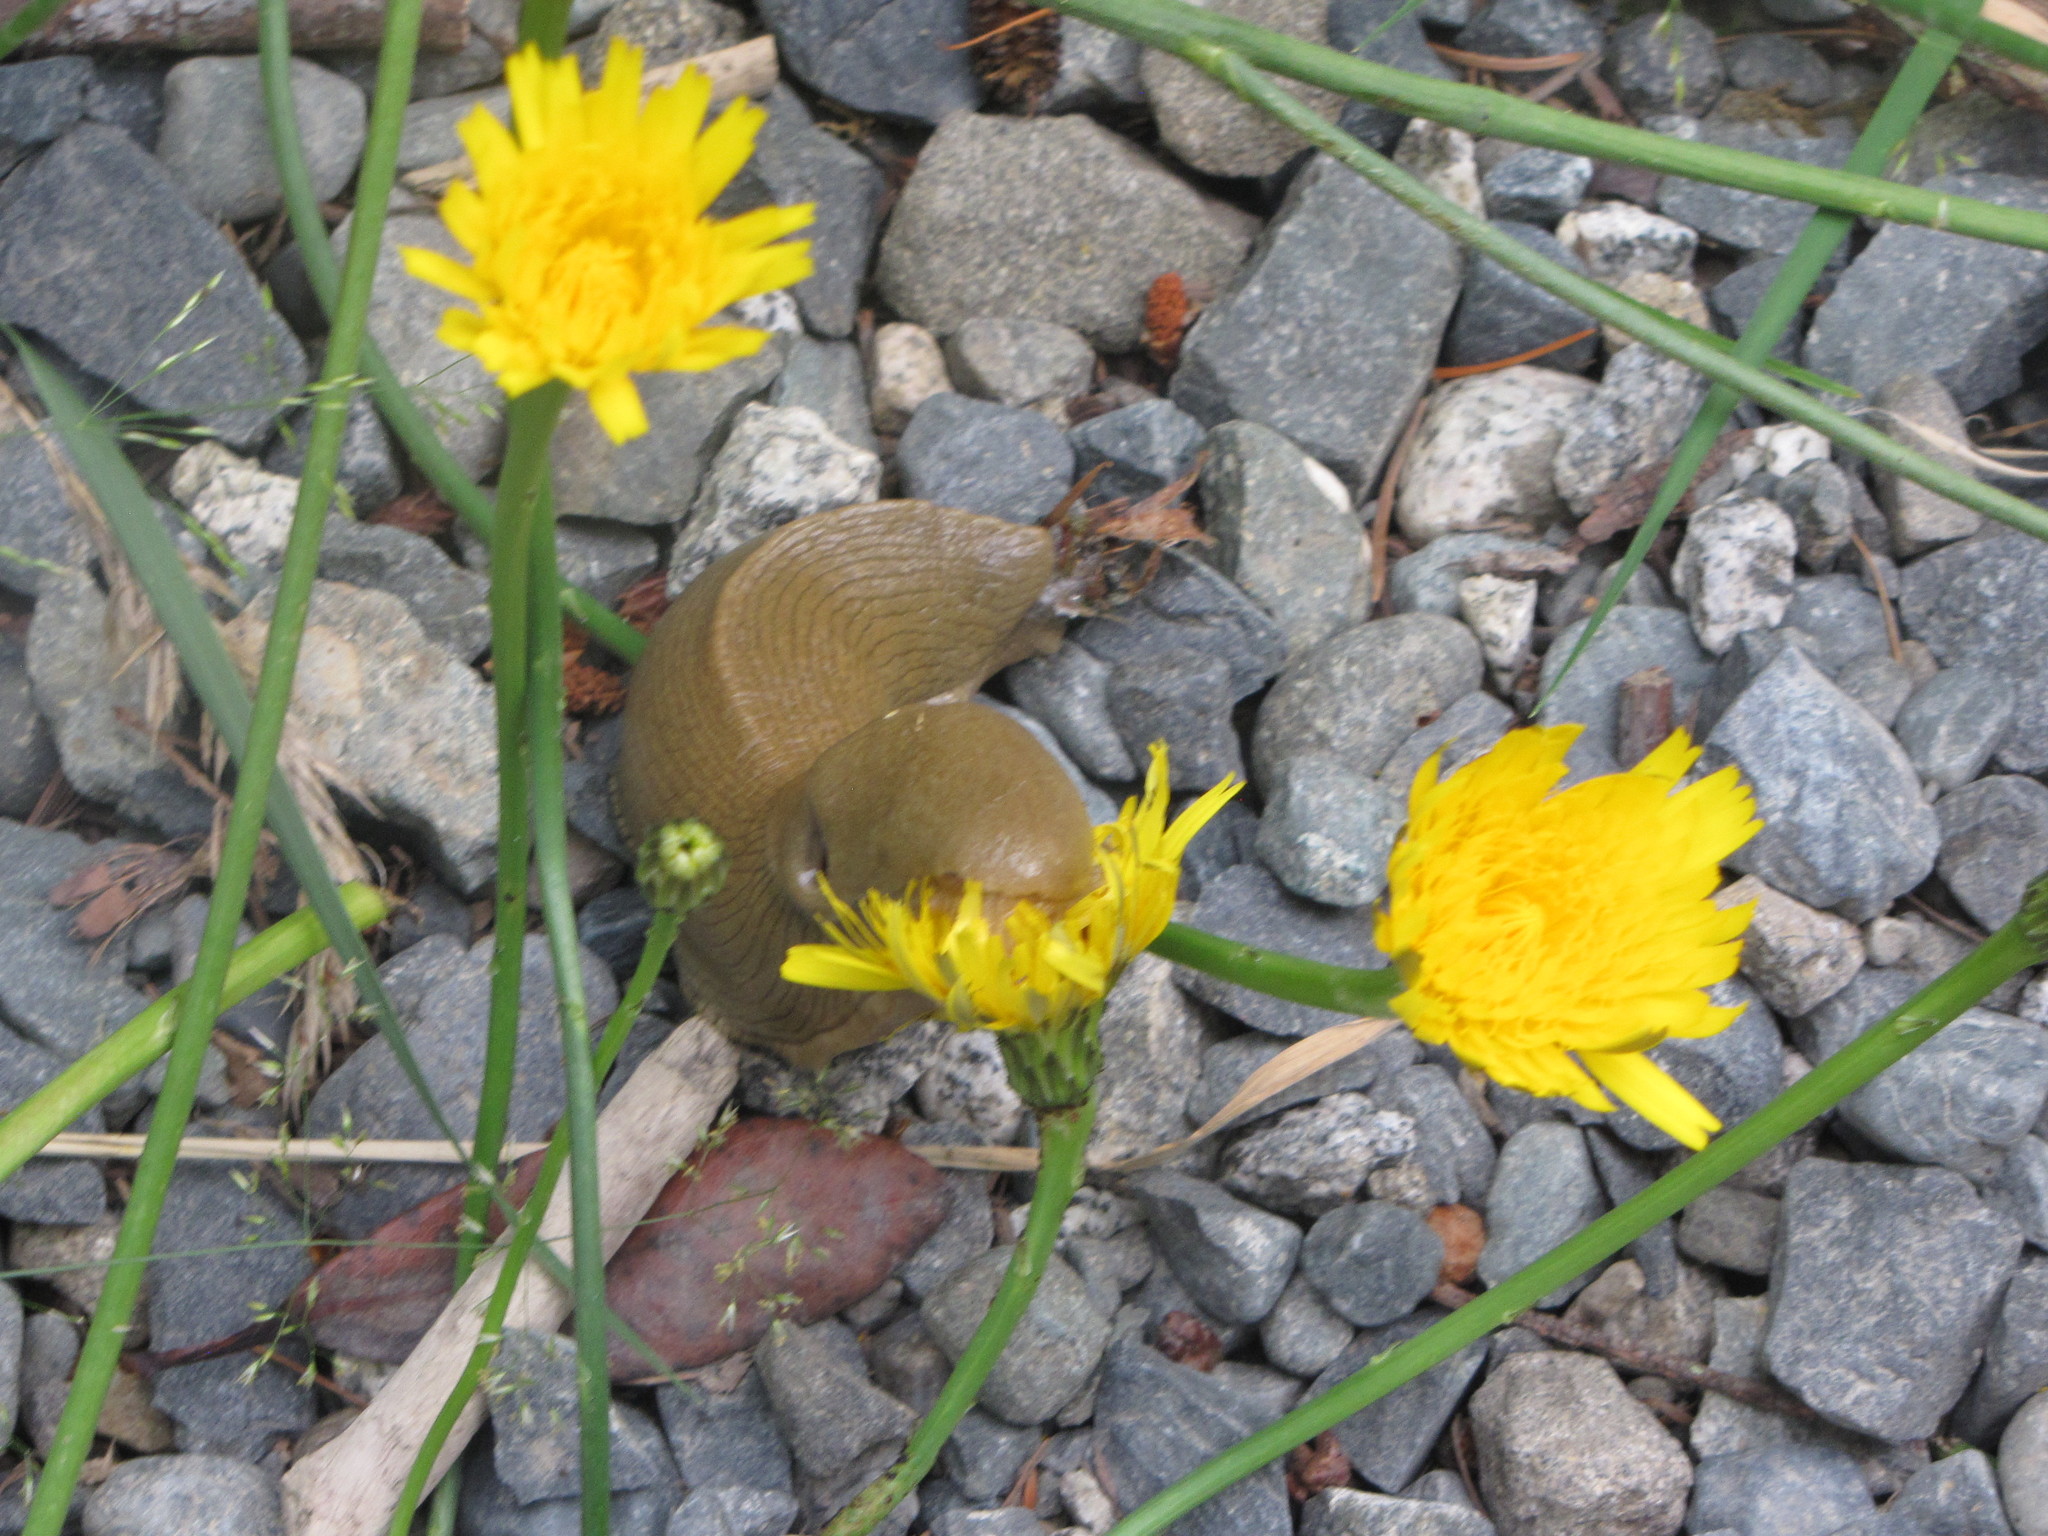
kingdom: Animalia
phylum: Mollusca
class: Gastropoda
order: Stylommatophora
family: Ariolimacidae
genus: Ariolimax
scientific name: Ariolimax columbianus
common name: Pacific banana slug
